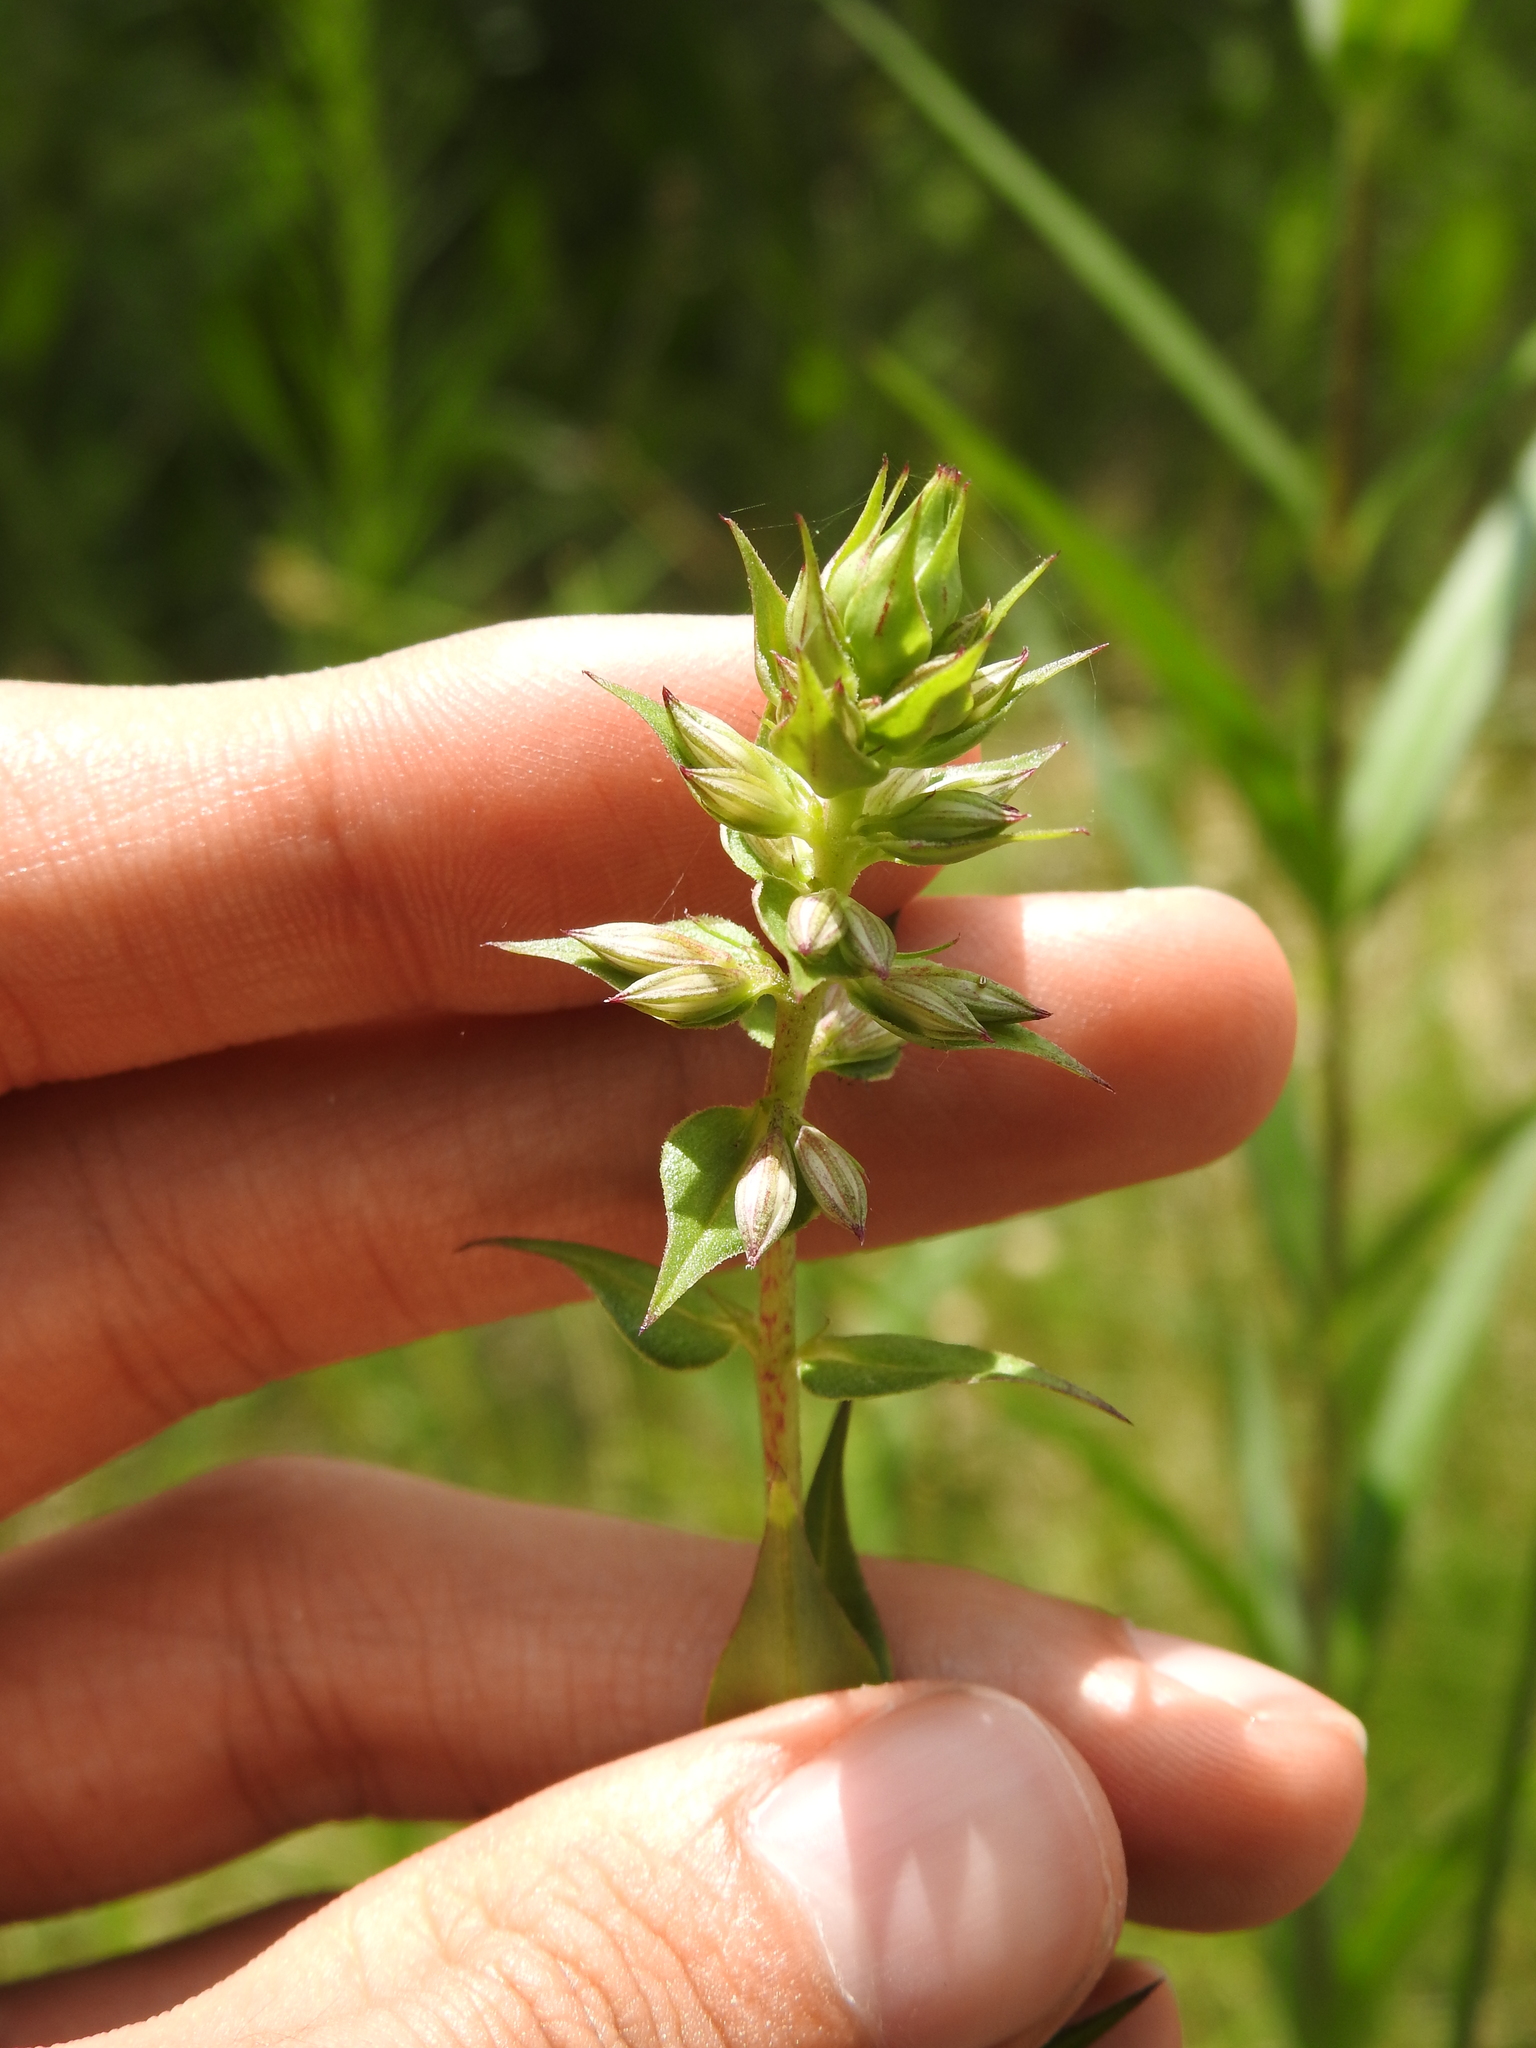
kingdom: Plantae
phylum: Tracheophyta
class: Magnoliopsida
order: Ericales
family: Polemoniaceae
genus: Phlox
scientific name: Phlox maculata
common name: Meadow phlox
